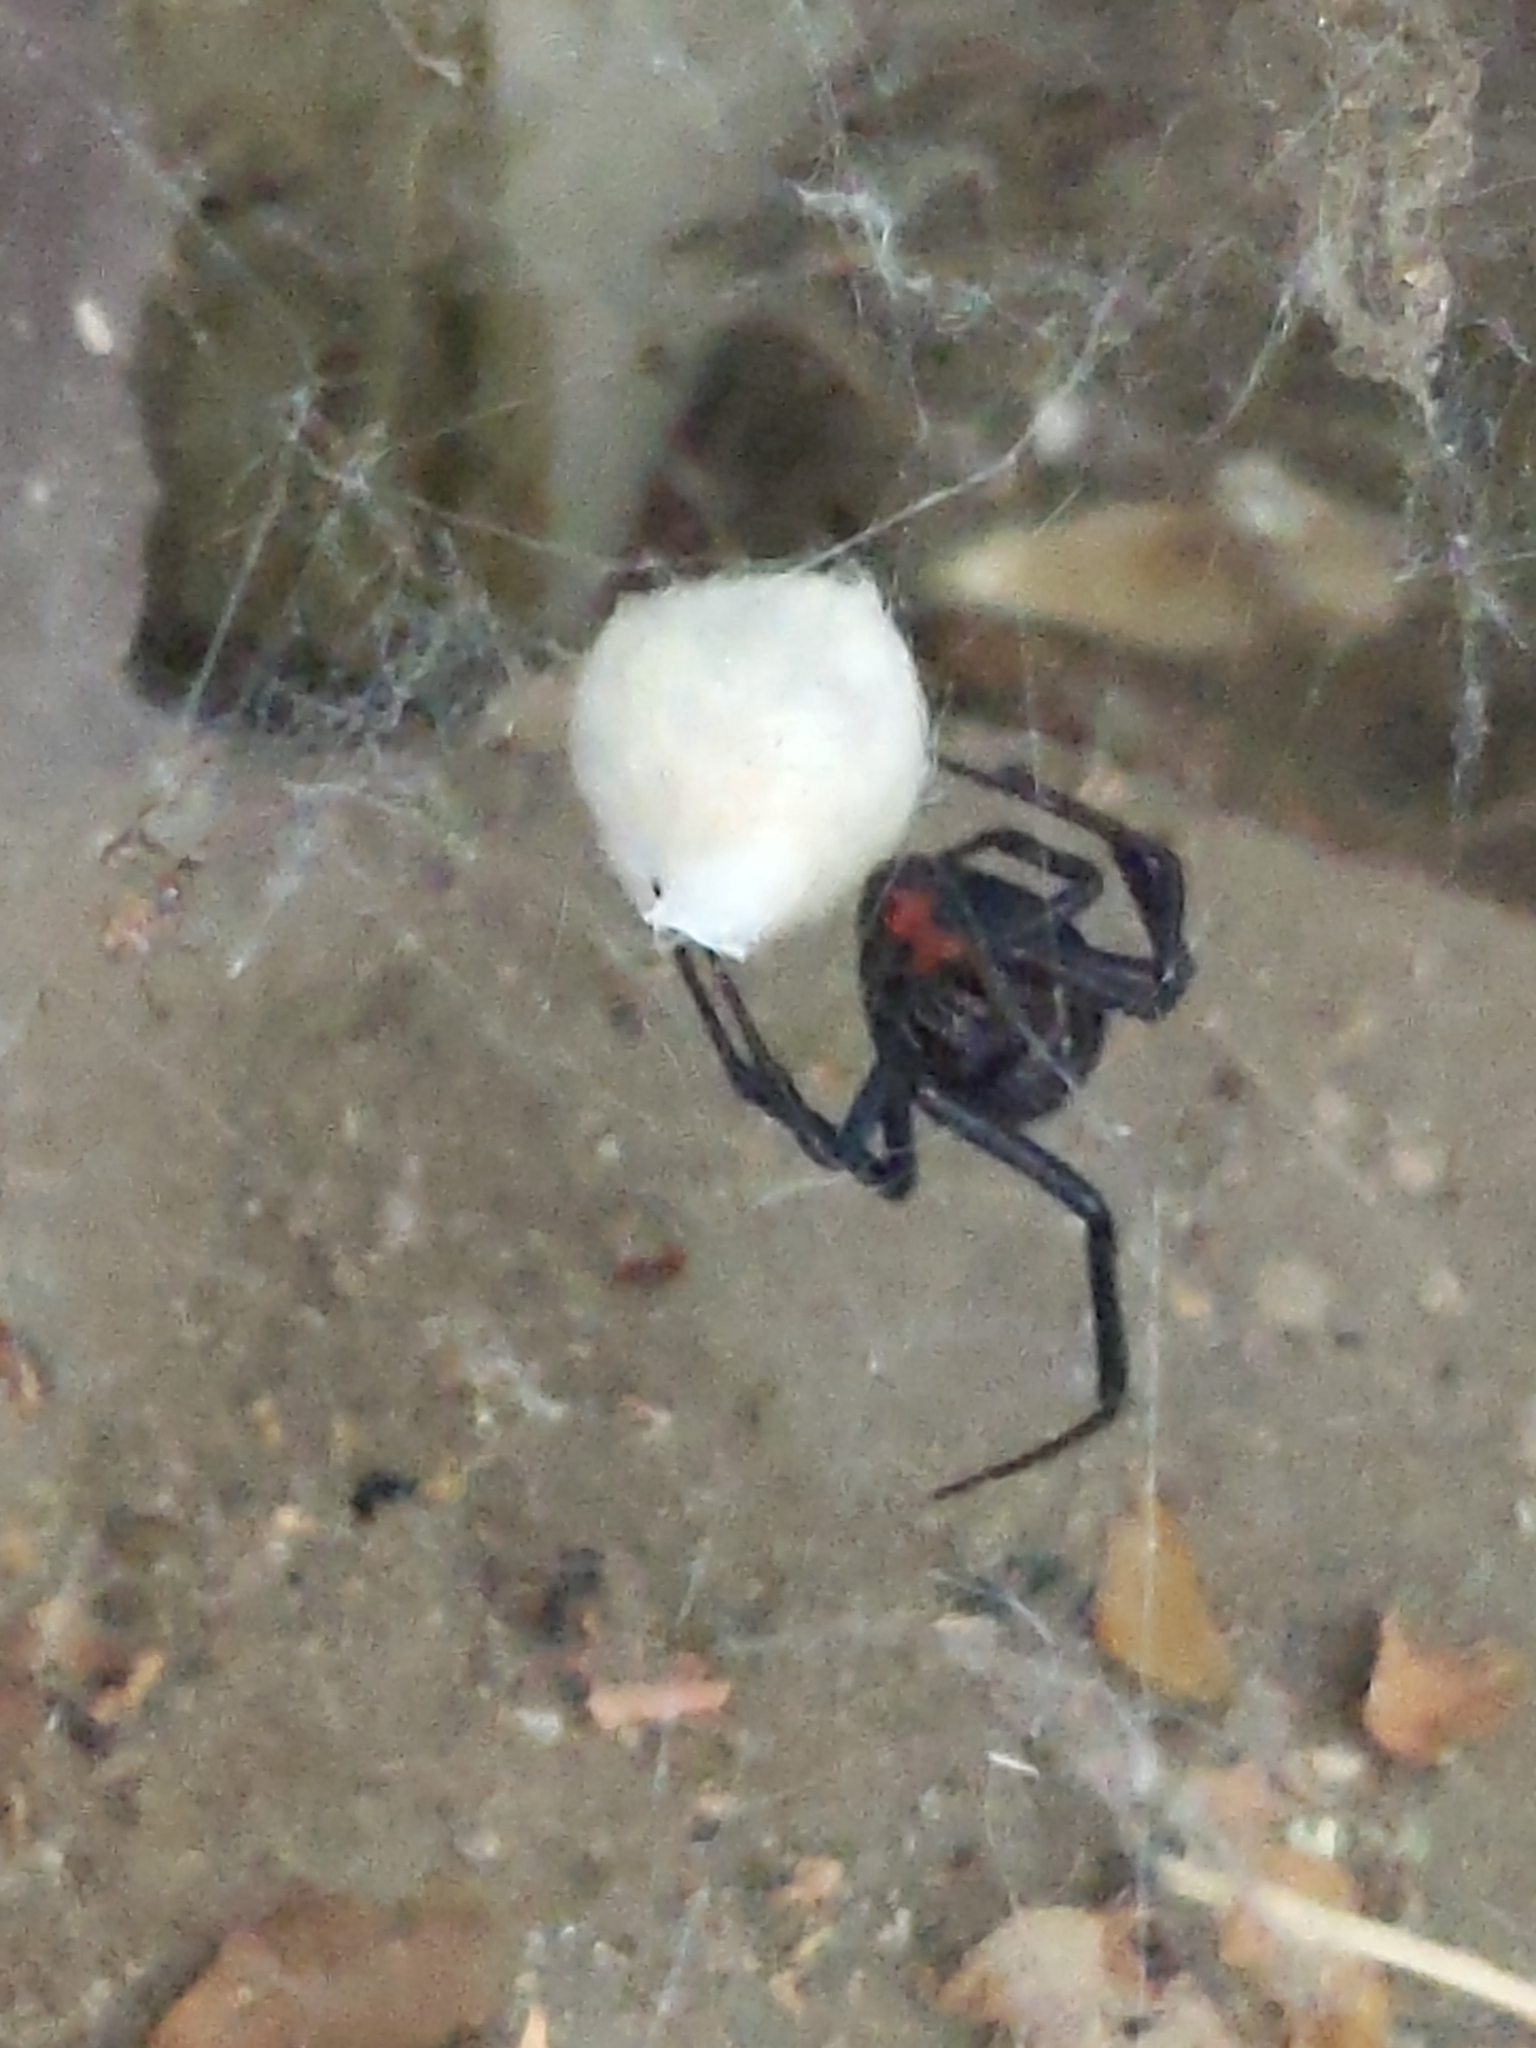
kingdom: Animalia
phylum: Arthropoda
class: Arachnida
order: Araneae
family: Theridiidae
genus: Latrodectus
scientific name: Latrodectus hesperus
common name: Western black widow
